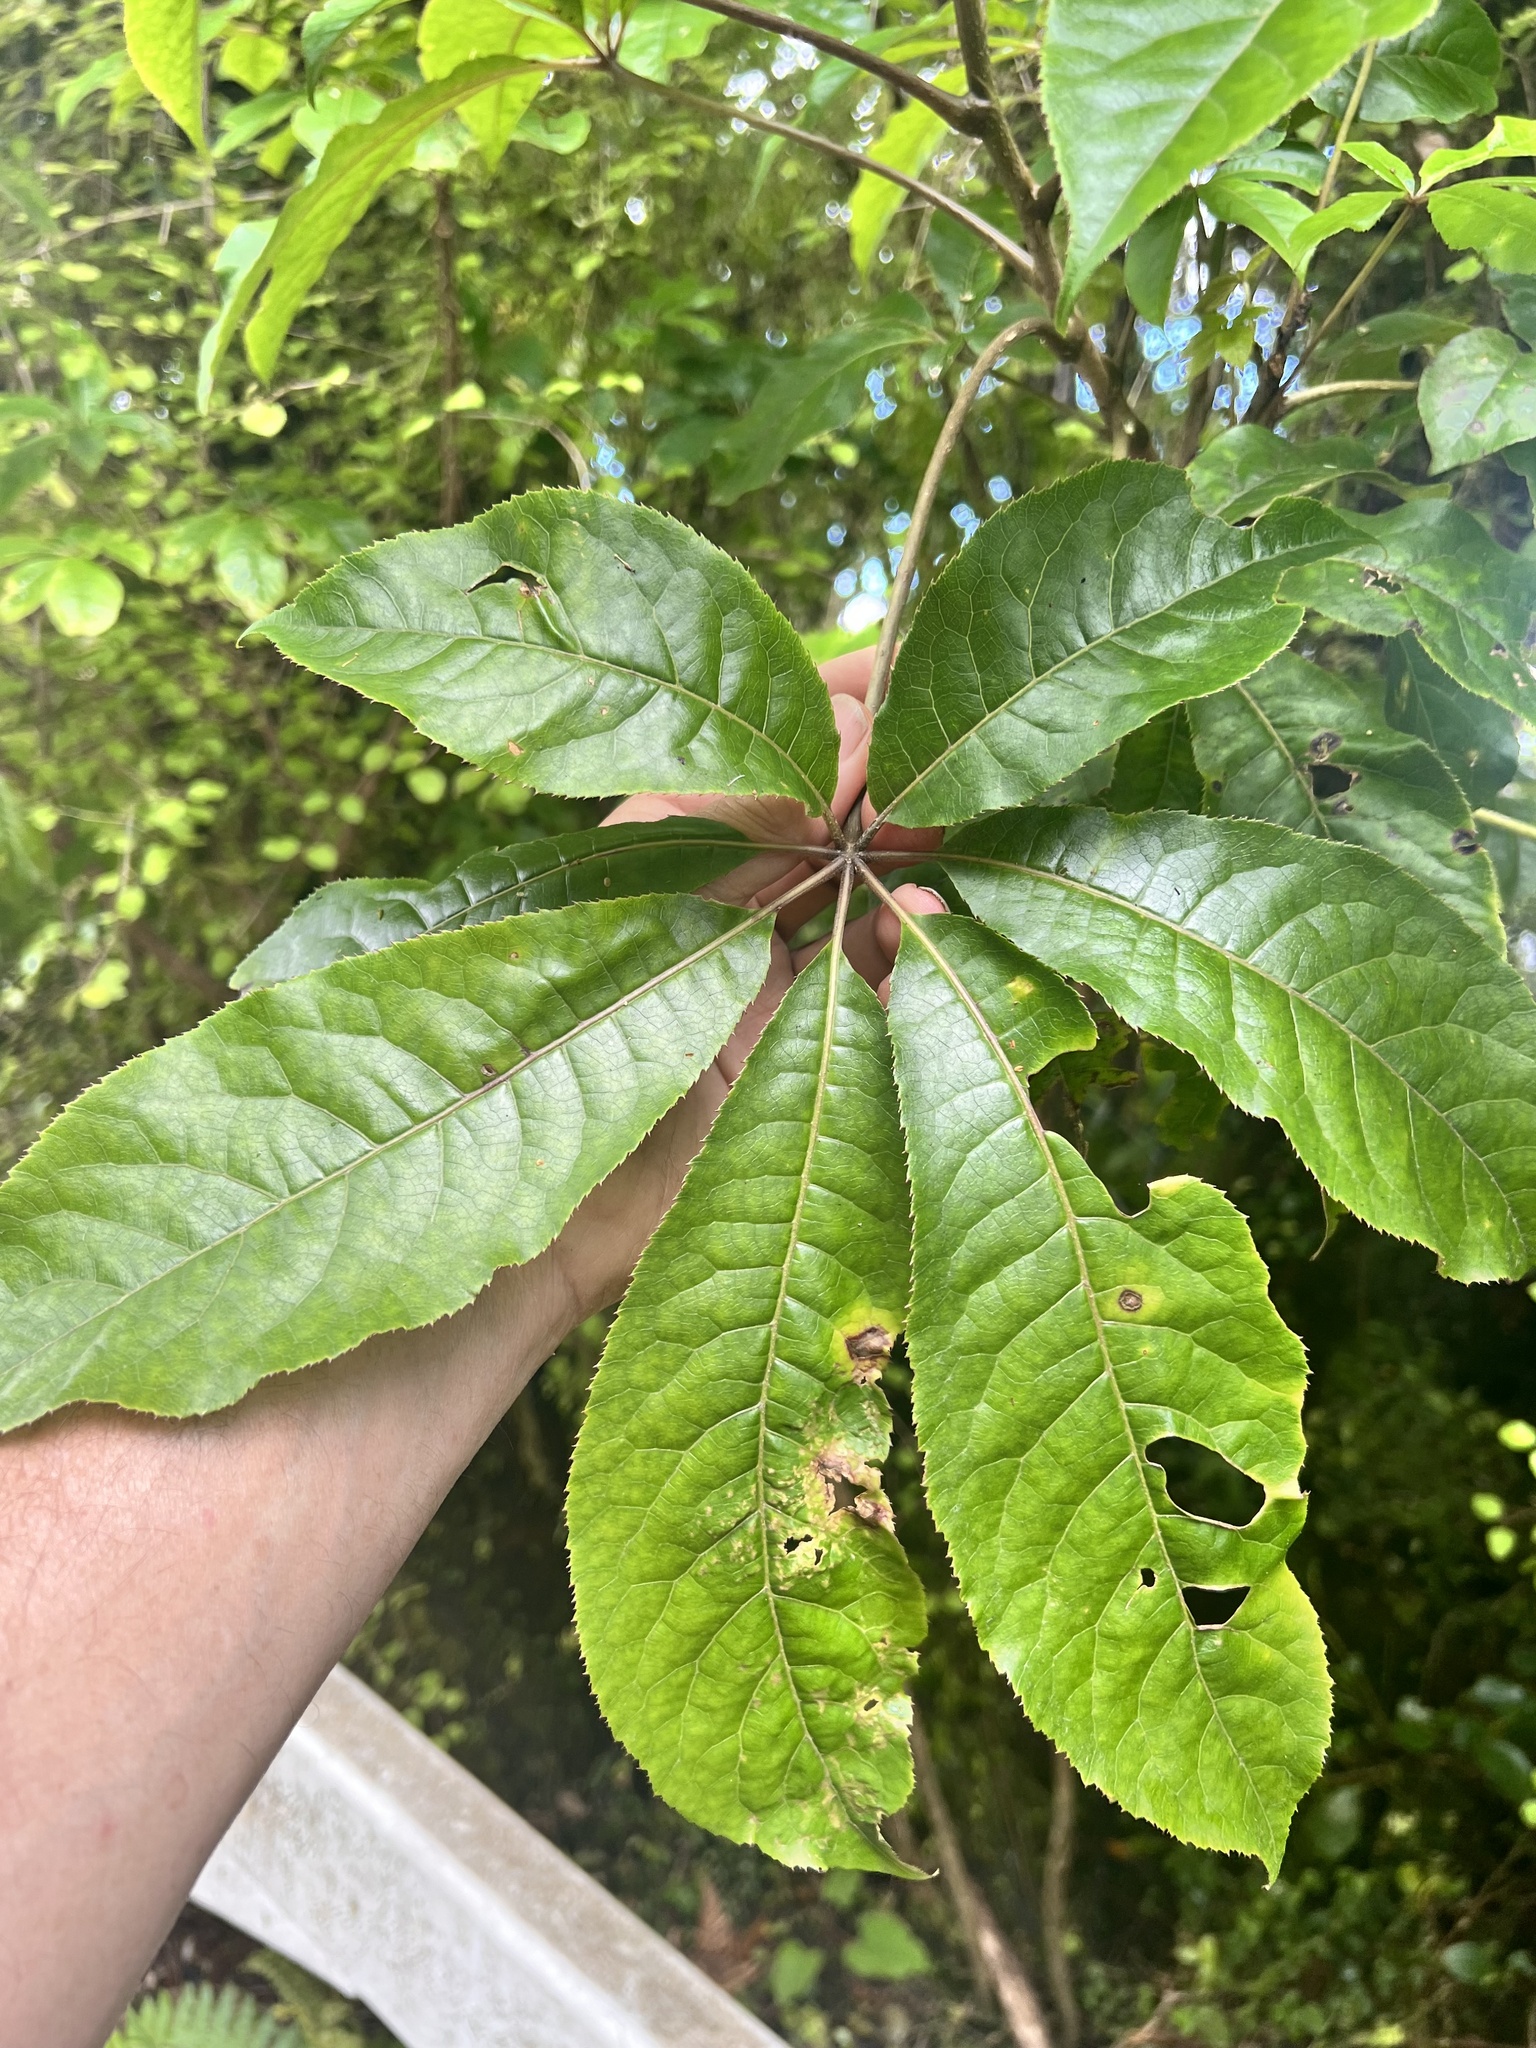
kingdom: Plantae
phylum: Tracheophyta
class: Magnoliopsida
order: Apiales
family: Araliaceae
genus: Schefflera
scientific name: Schefflera digitata
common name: Pate
